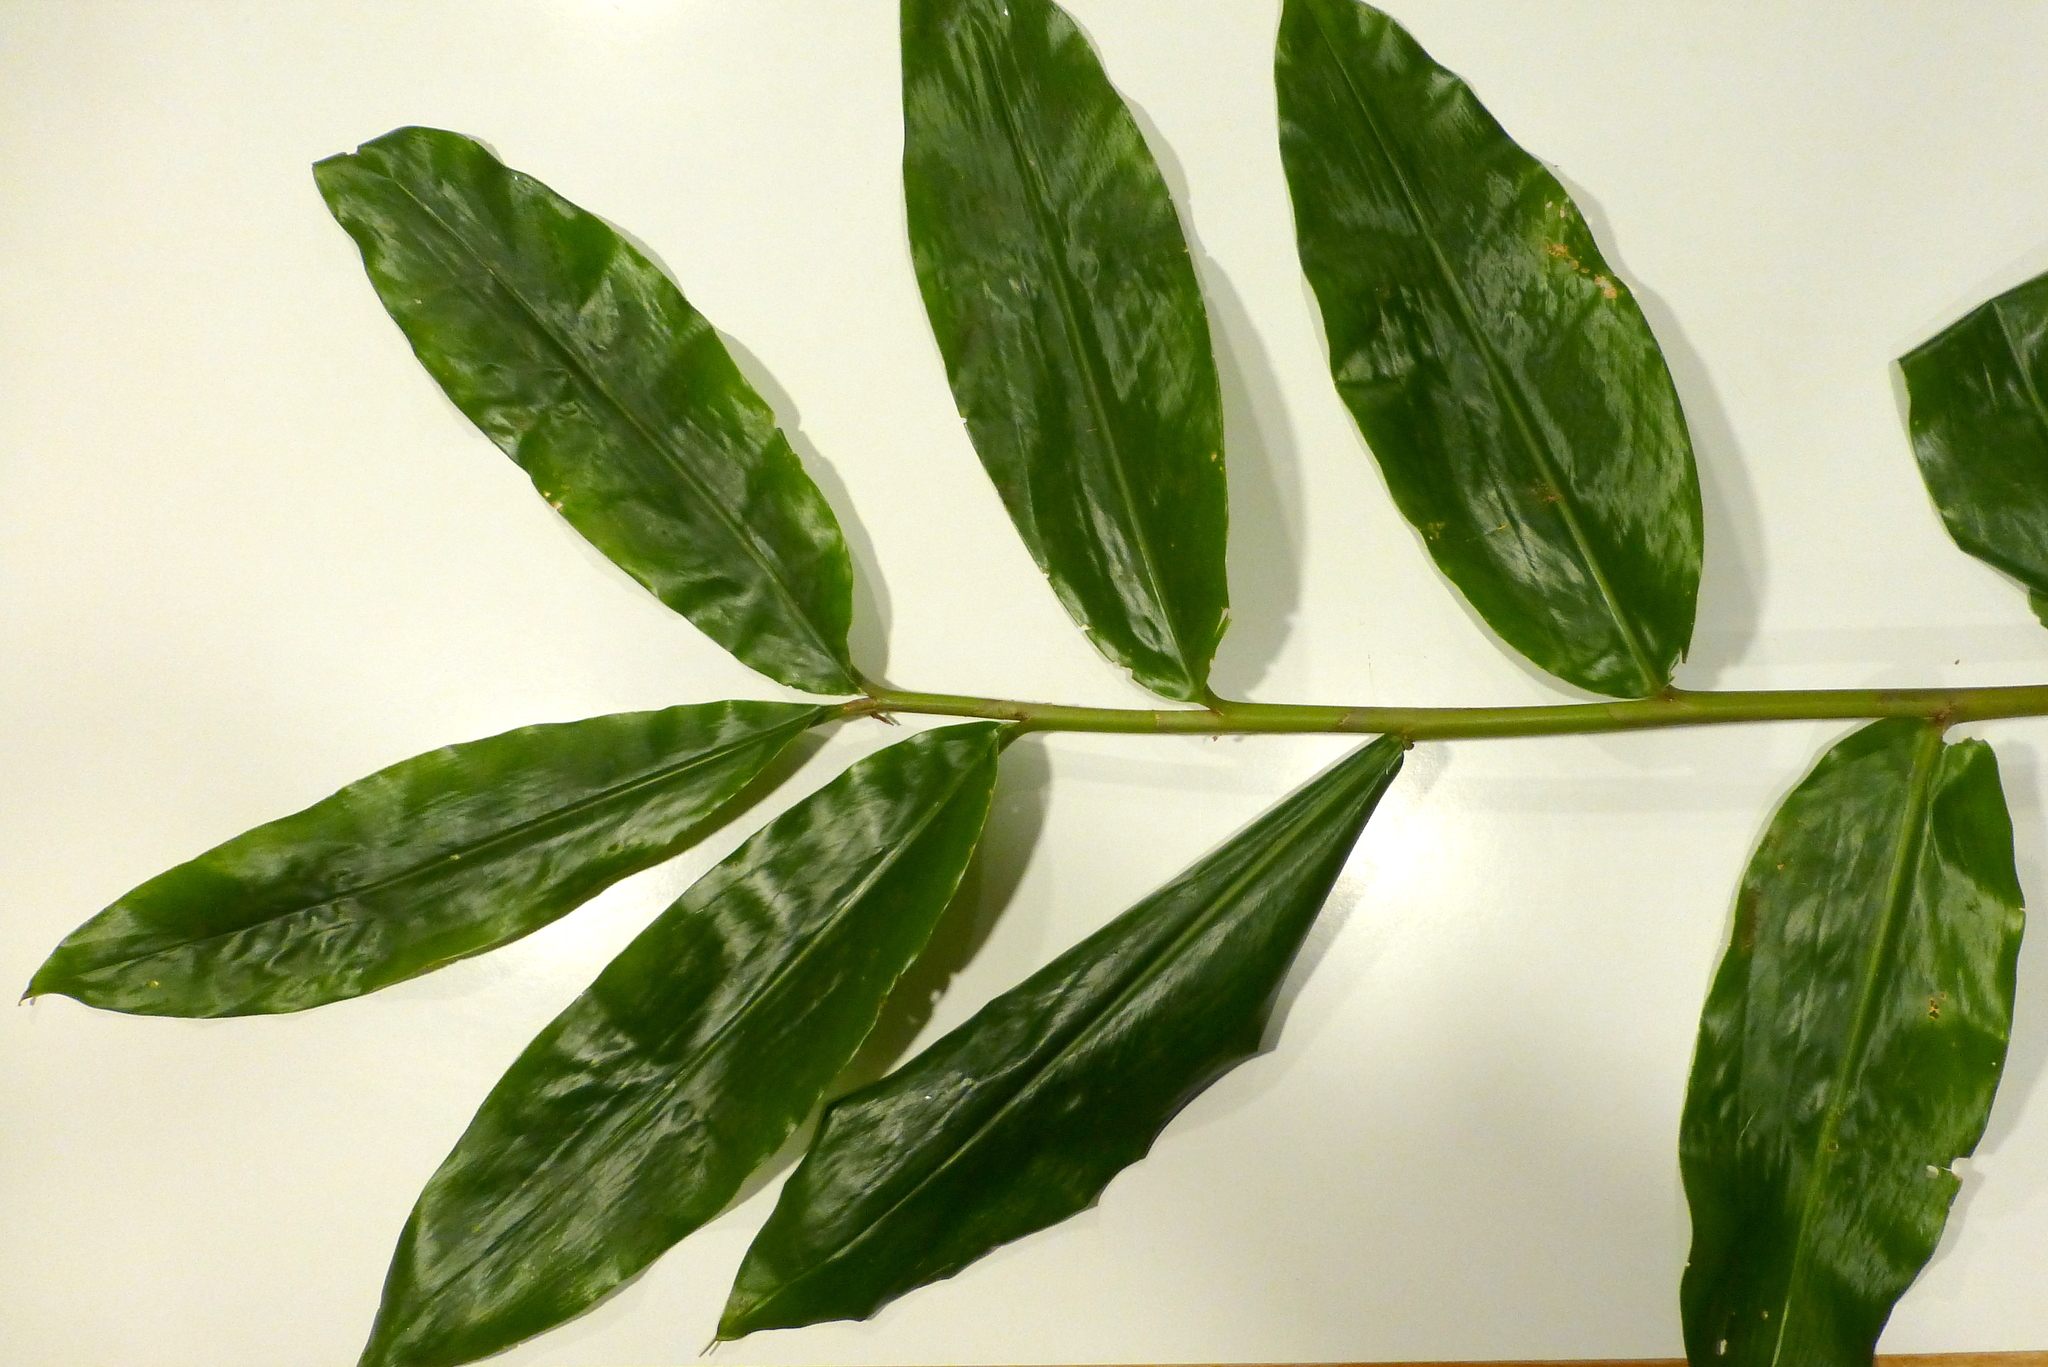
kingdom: Plantae
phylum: Tracheophyta
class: Liliopsida
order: Zingiberales
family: Zingiberaceae
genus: Hedychium
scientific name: Hedychium gardnerianum
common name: Himalayan ginger
